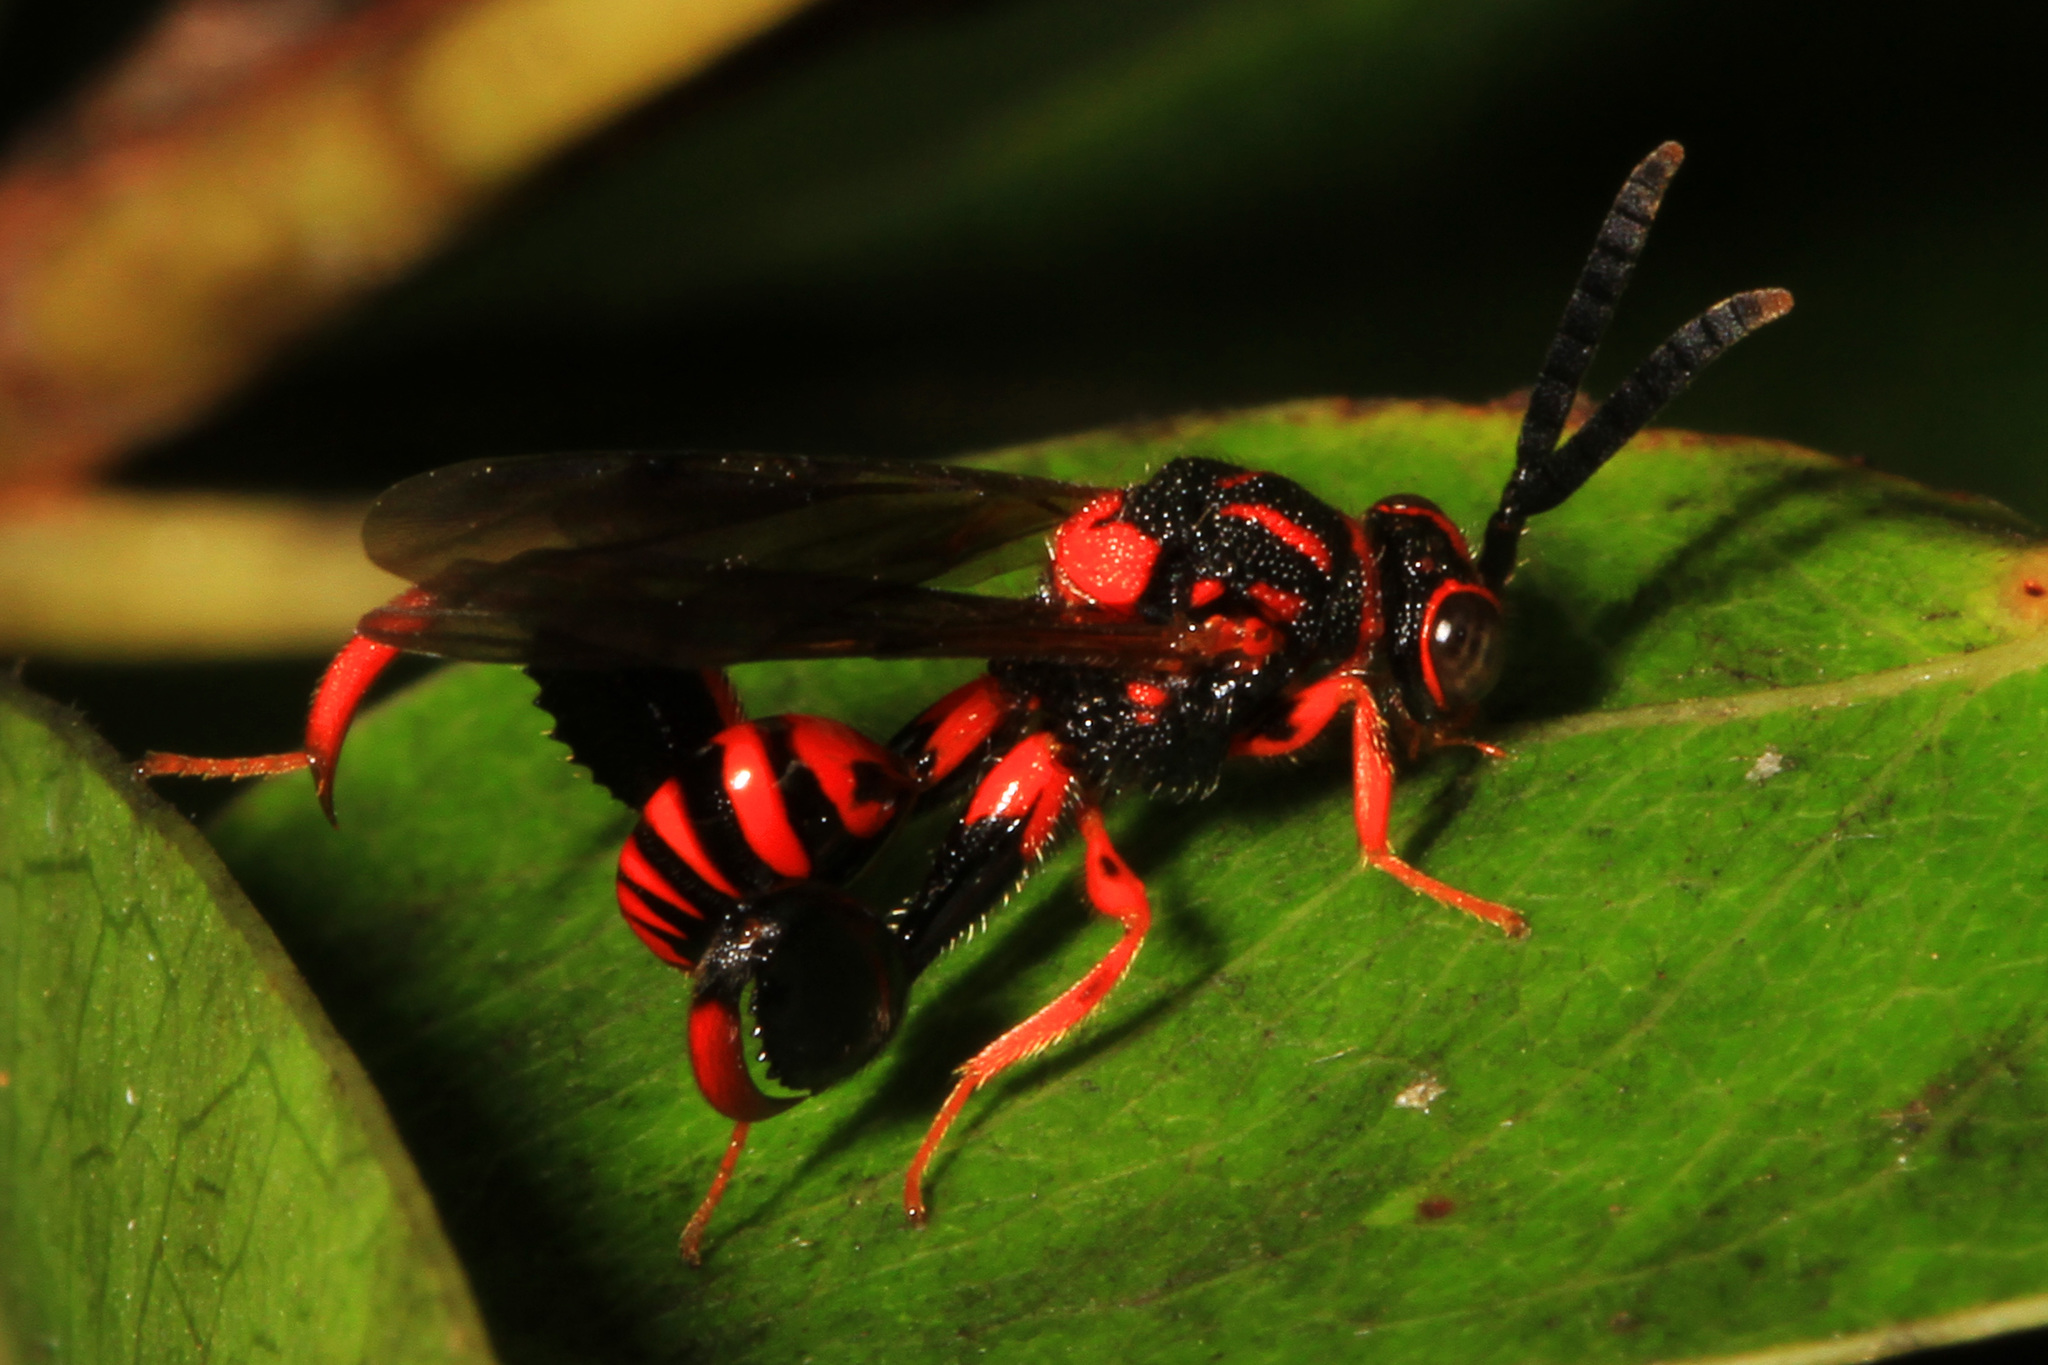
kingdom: Animalia
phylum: Arthropoda
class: Insecta
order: Hymenoptera
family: Chalcididae
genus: Conura
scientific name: Conura
